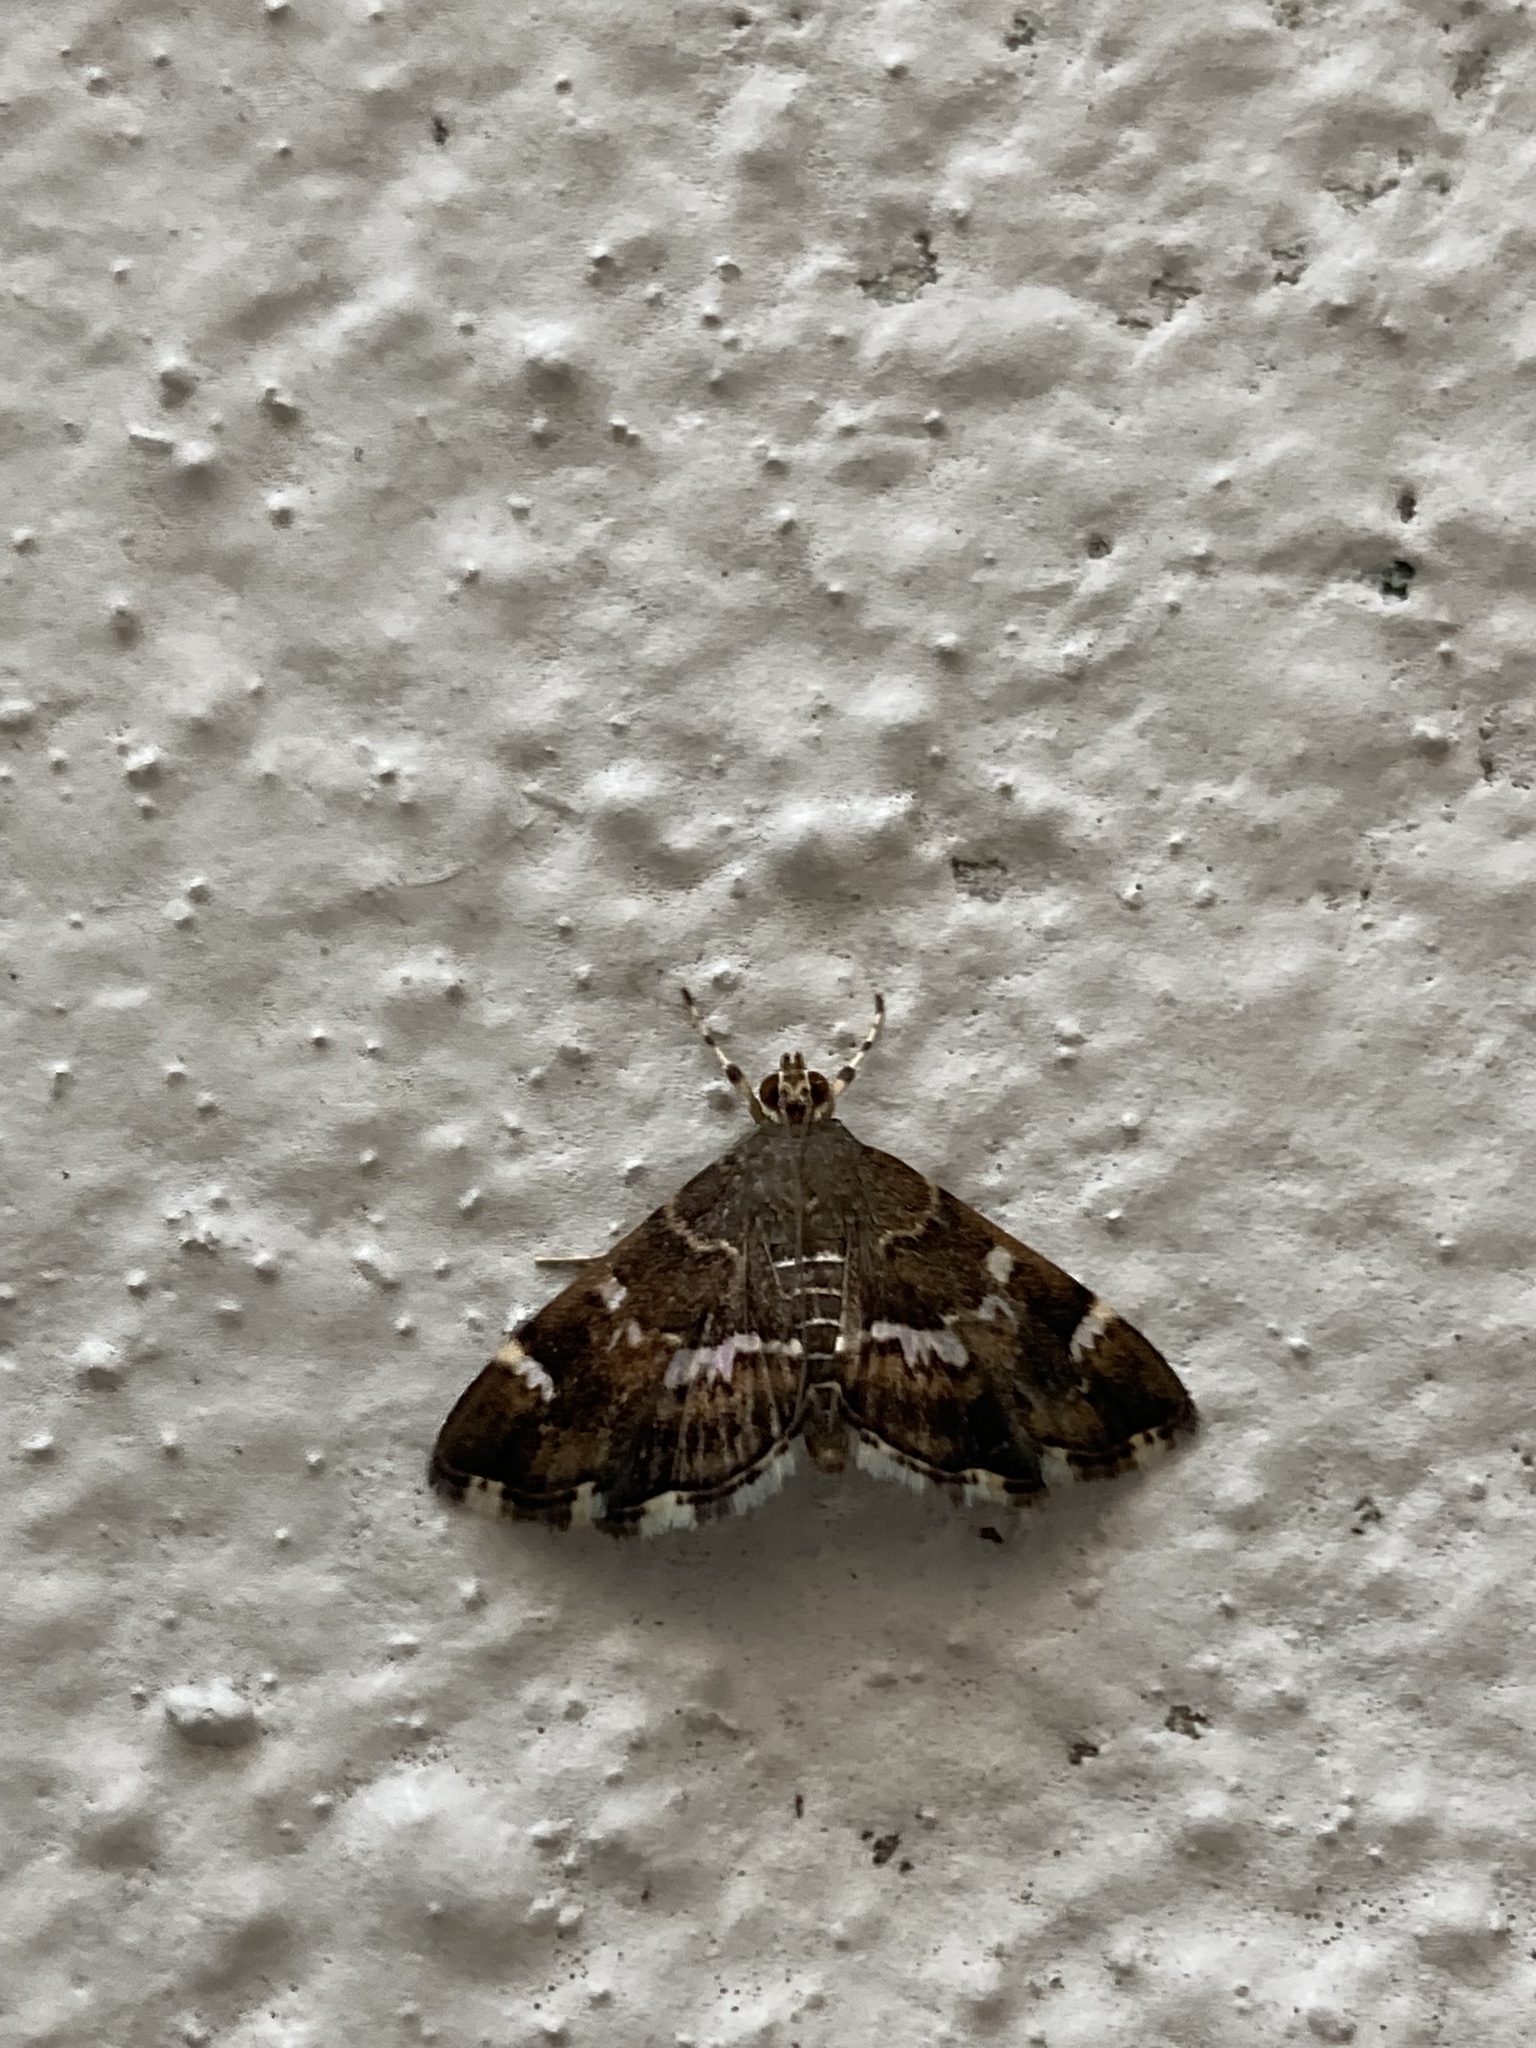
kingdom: Animalia
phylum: Arthropoda
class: Insecta
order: Lepidoptera
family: Crambidae
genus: Hymenia
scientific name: Hymenia perspectalis
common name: Spotted beet webworm
